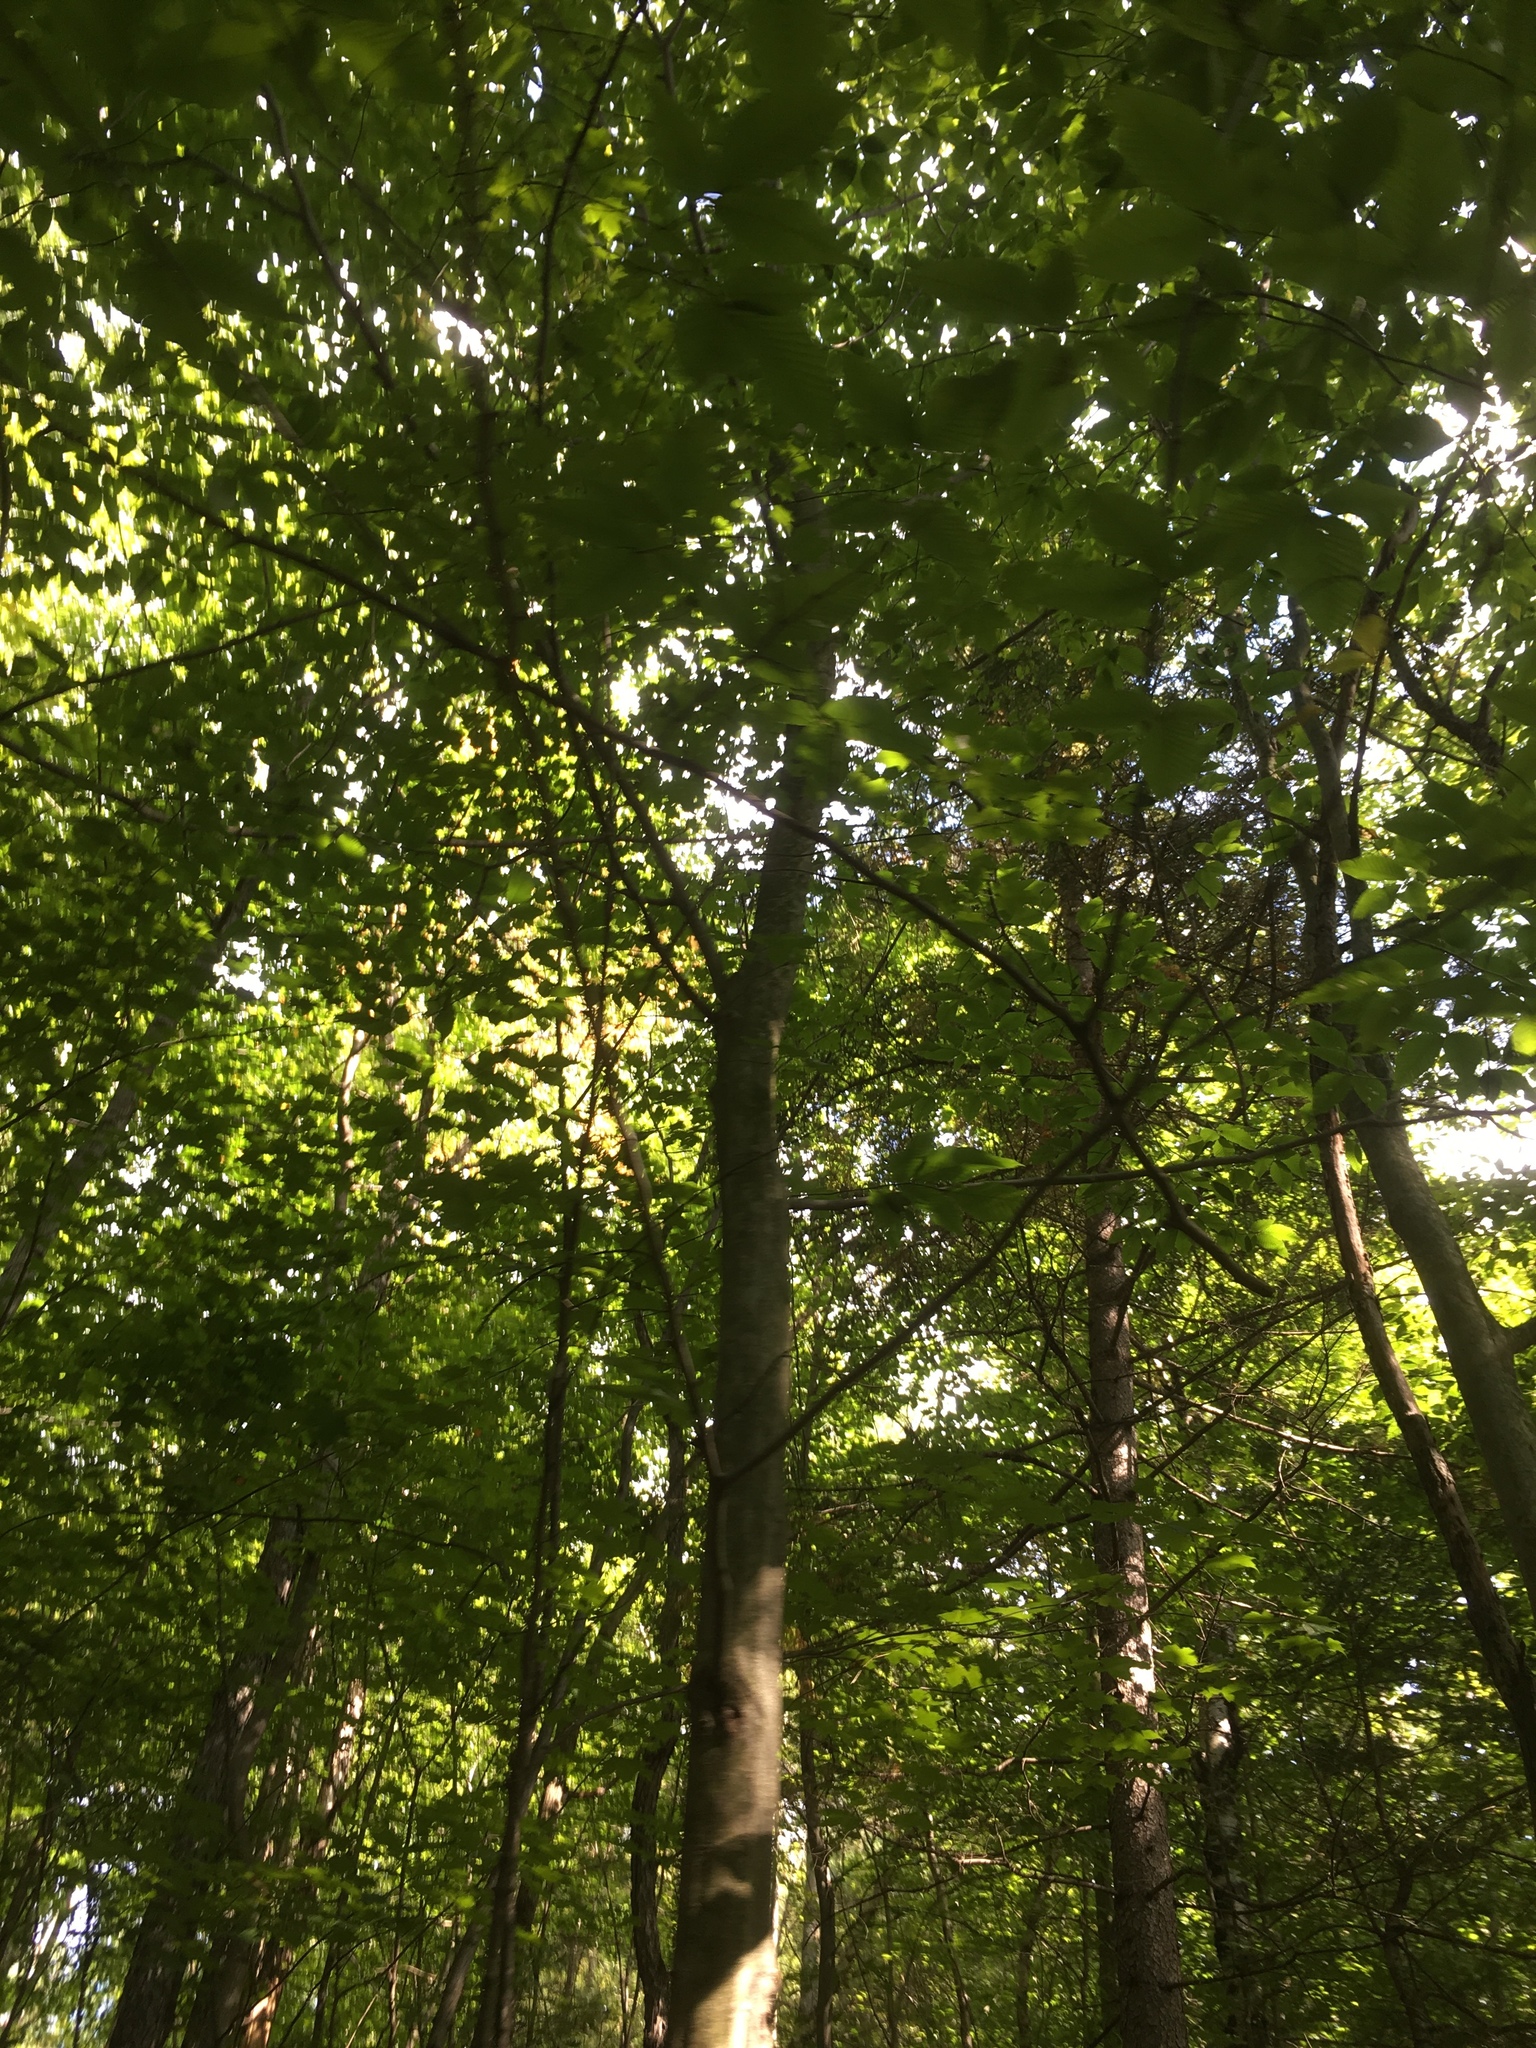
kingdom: Plantae
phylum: Tracheophyta
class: Magnoliopsida
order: Fagales
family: Fagaceae
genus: Fagus
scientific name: Fagus grandifolia
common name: American beech
